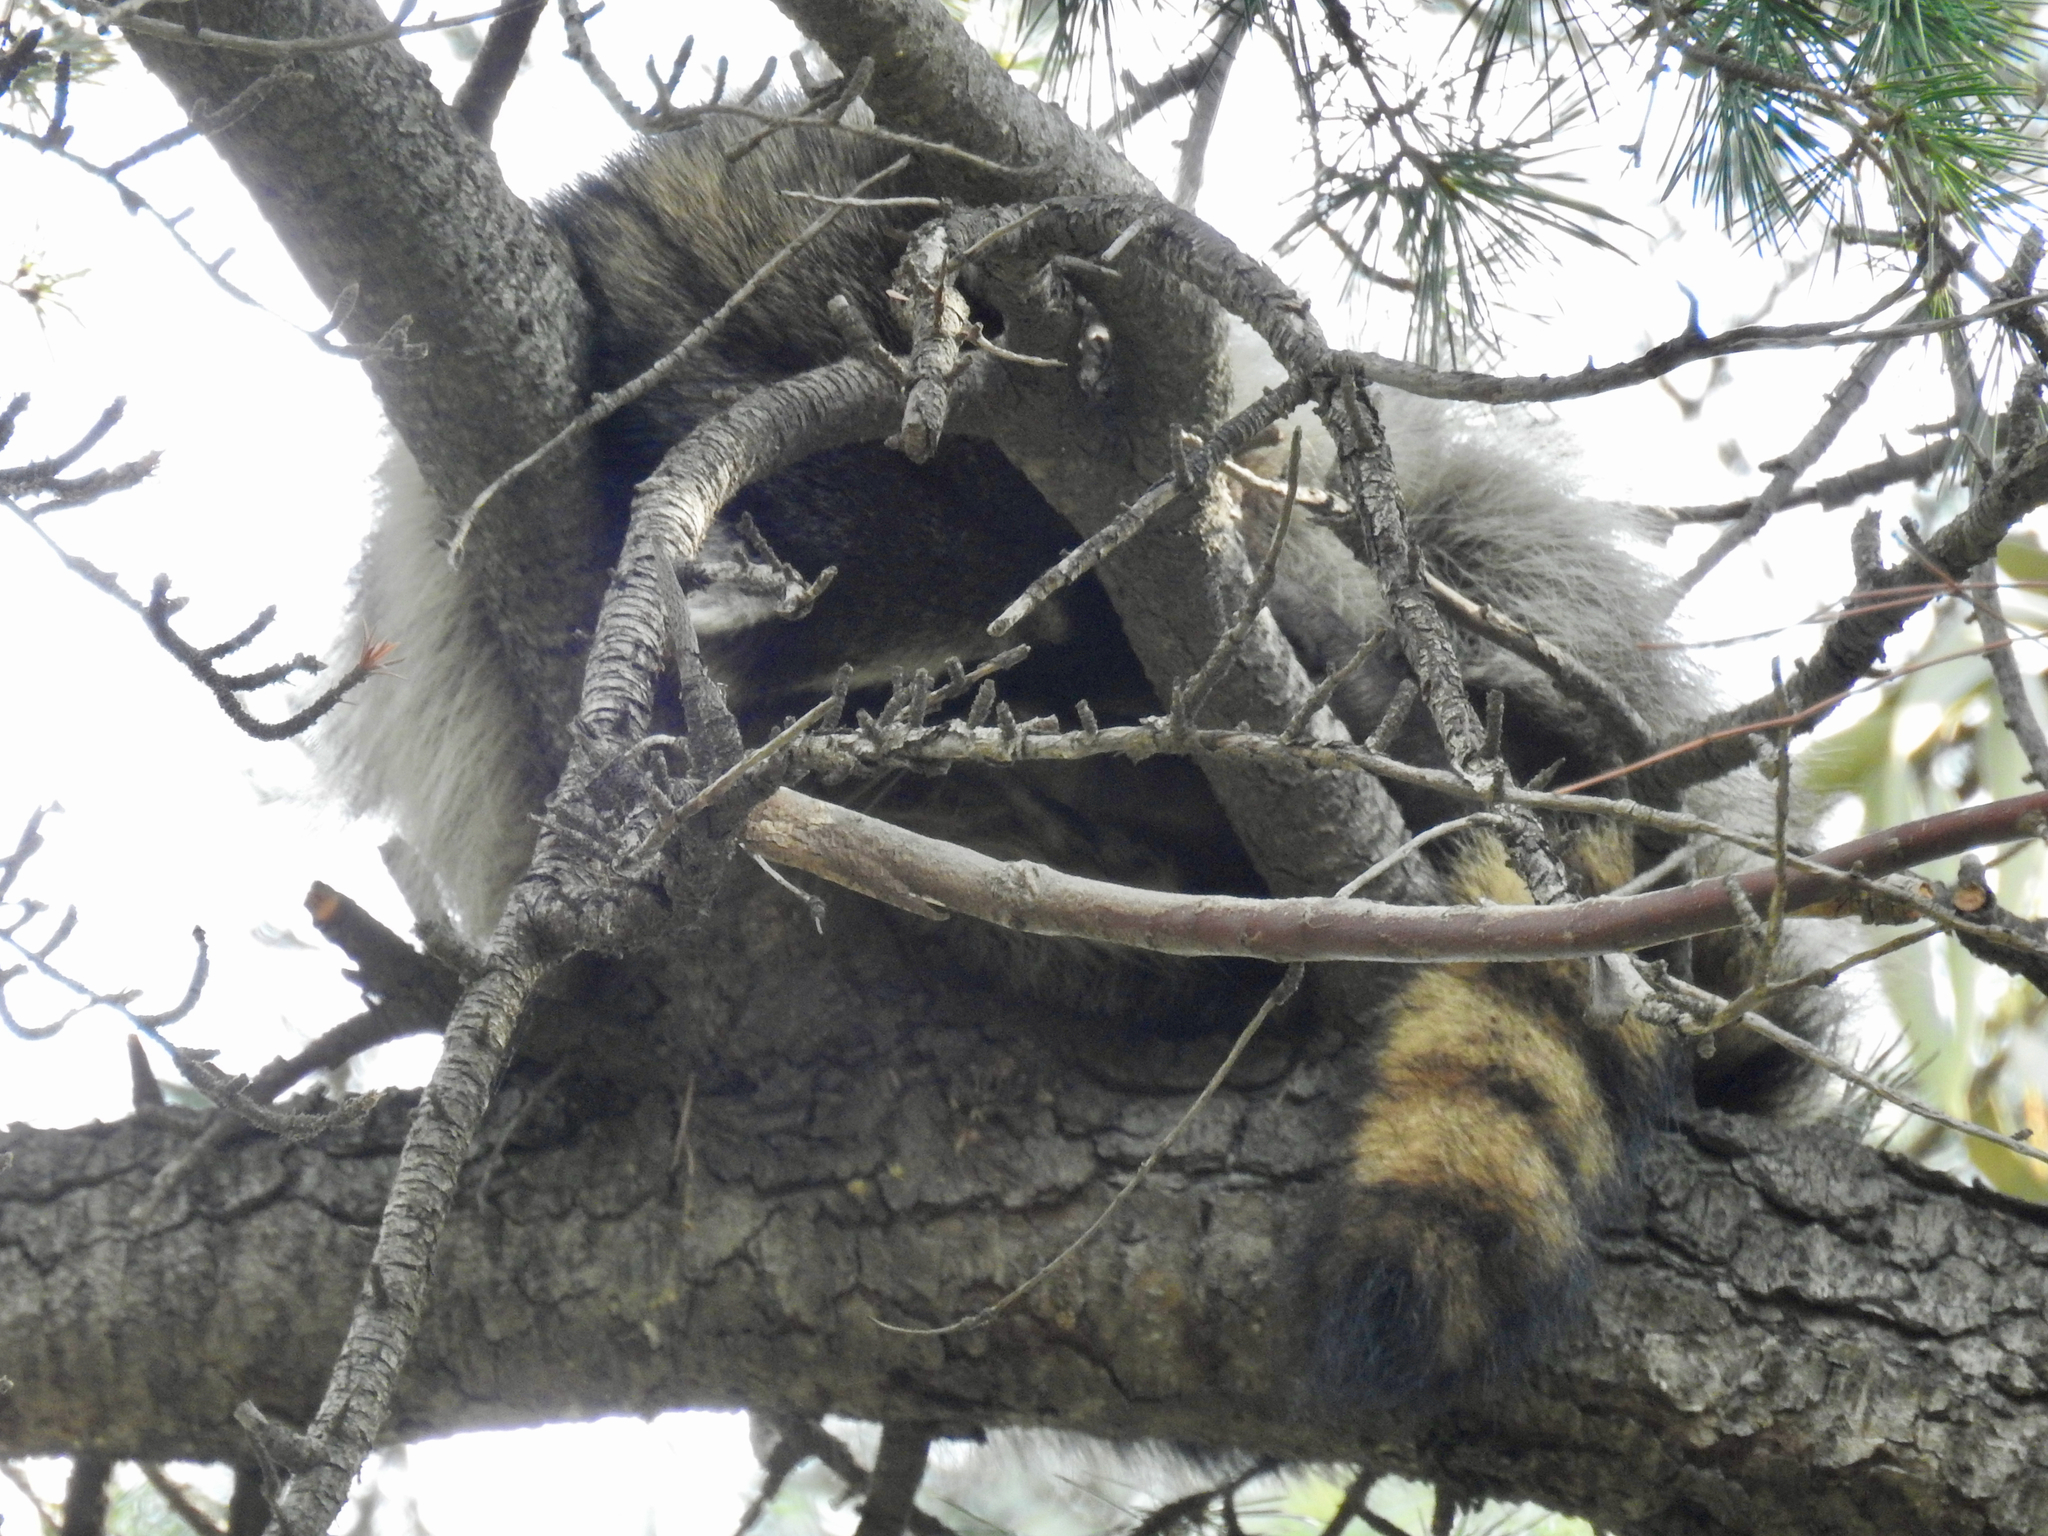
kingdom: Animalia
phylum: Chordata
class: Mammalia
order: Carnivora
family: Procyonidae
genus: Procyon
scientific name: Procyon lotor
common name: Raccoon
